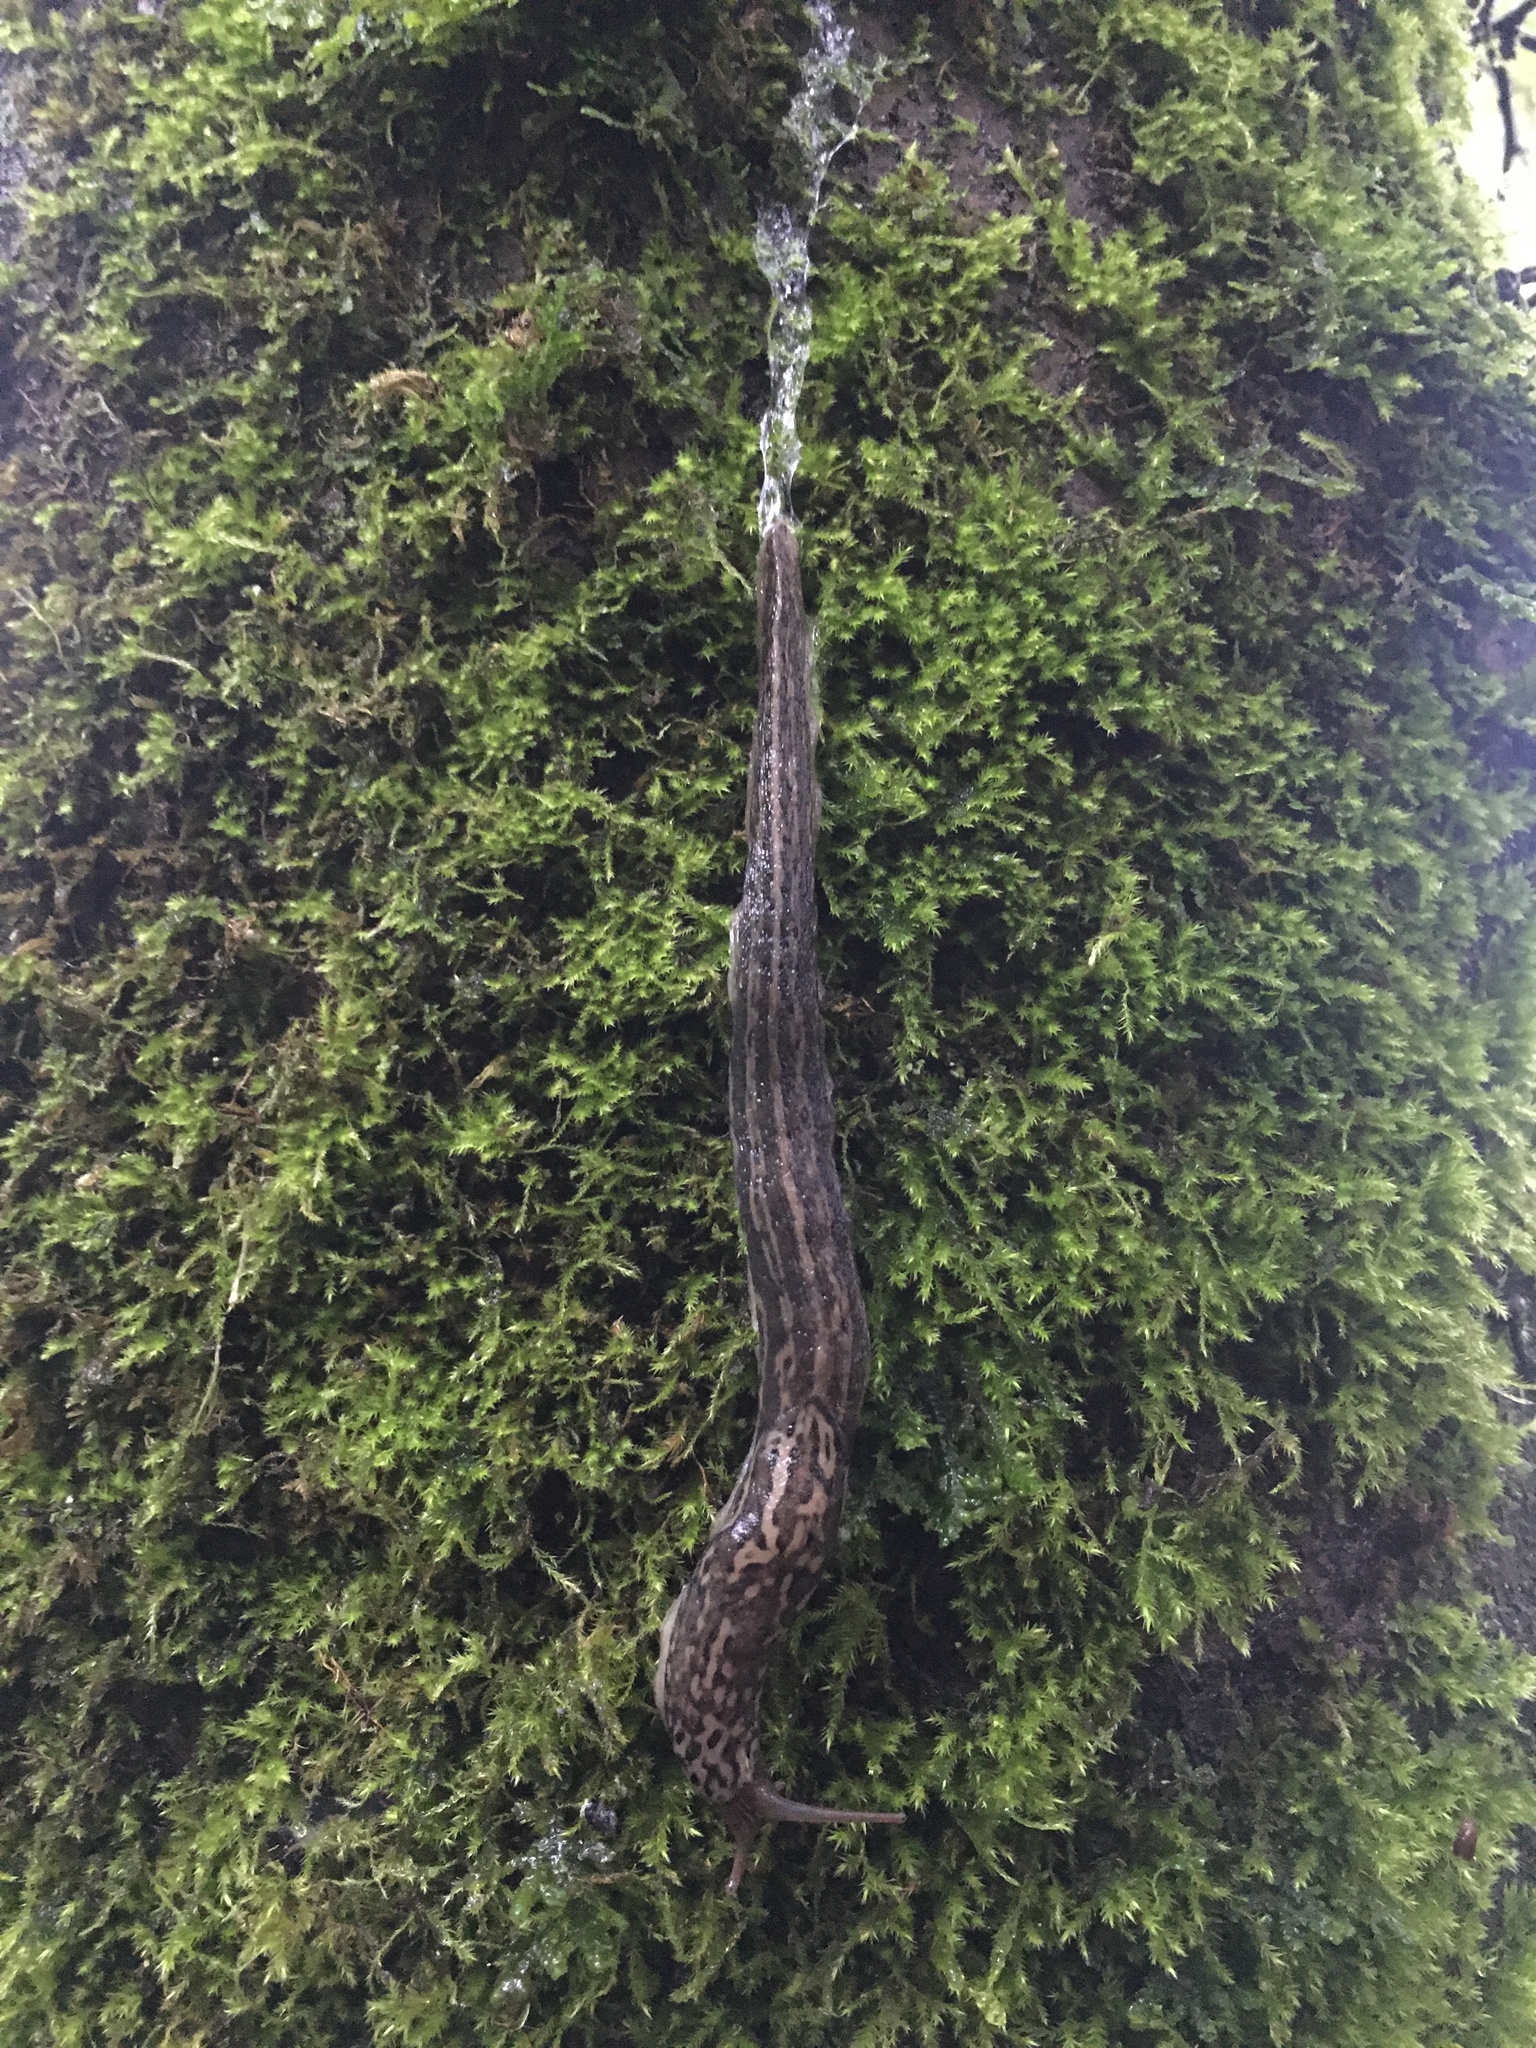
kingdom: Animalia
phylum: Mollusca
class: Gastropoda
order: Stylommatophora
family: Limacidae
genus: Limax
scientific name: Limax maximus
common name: Great grey slug
